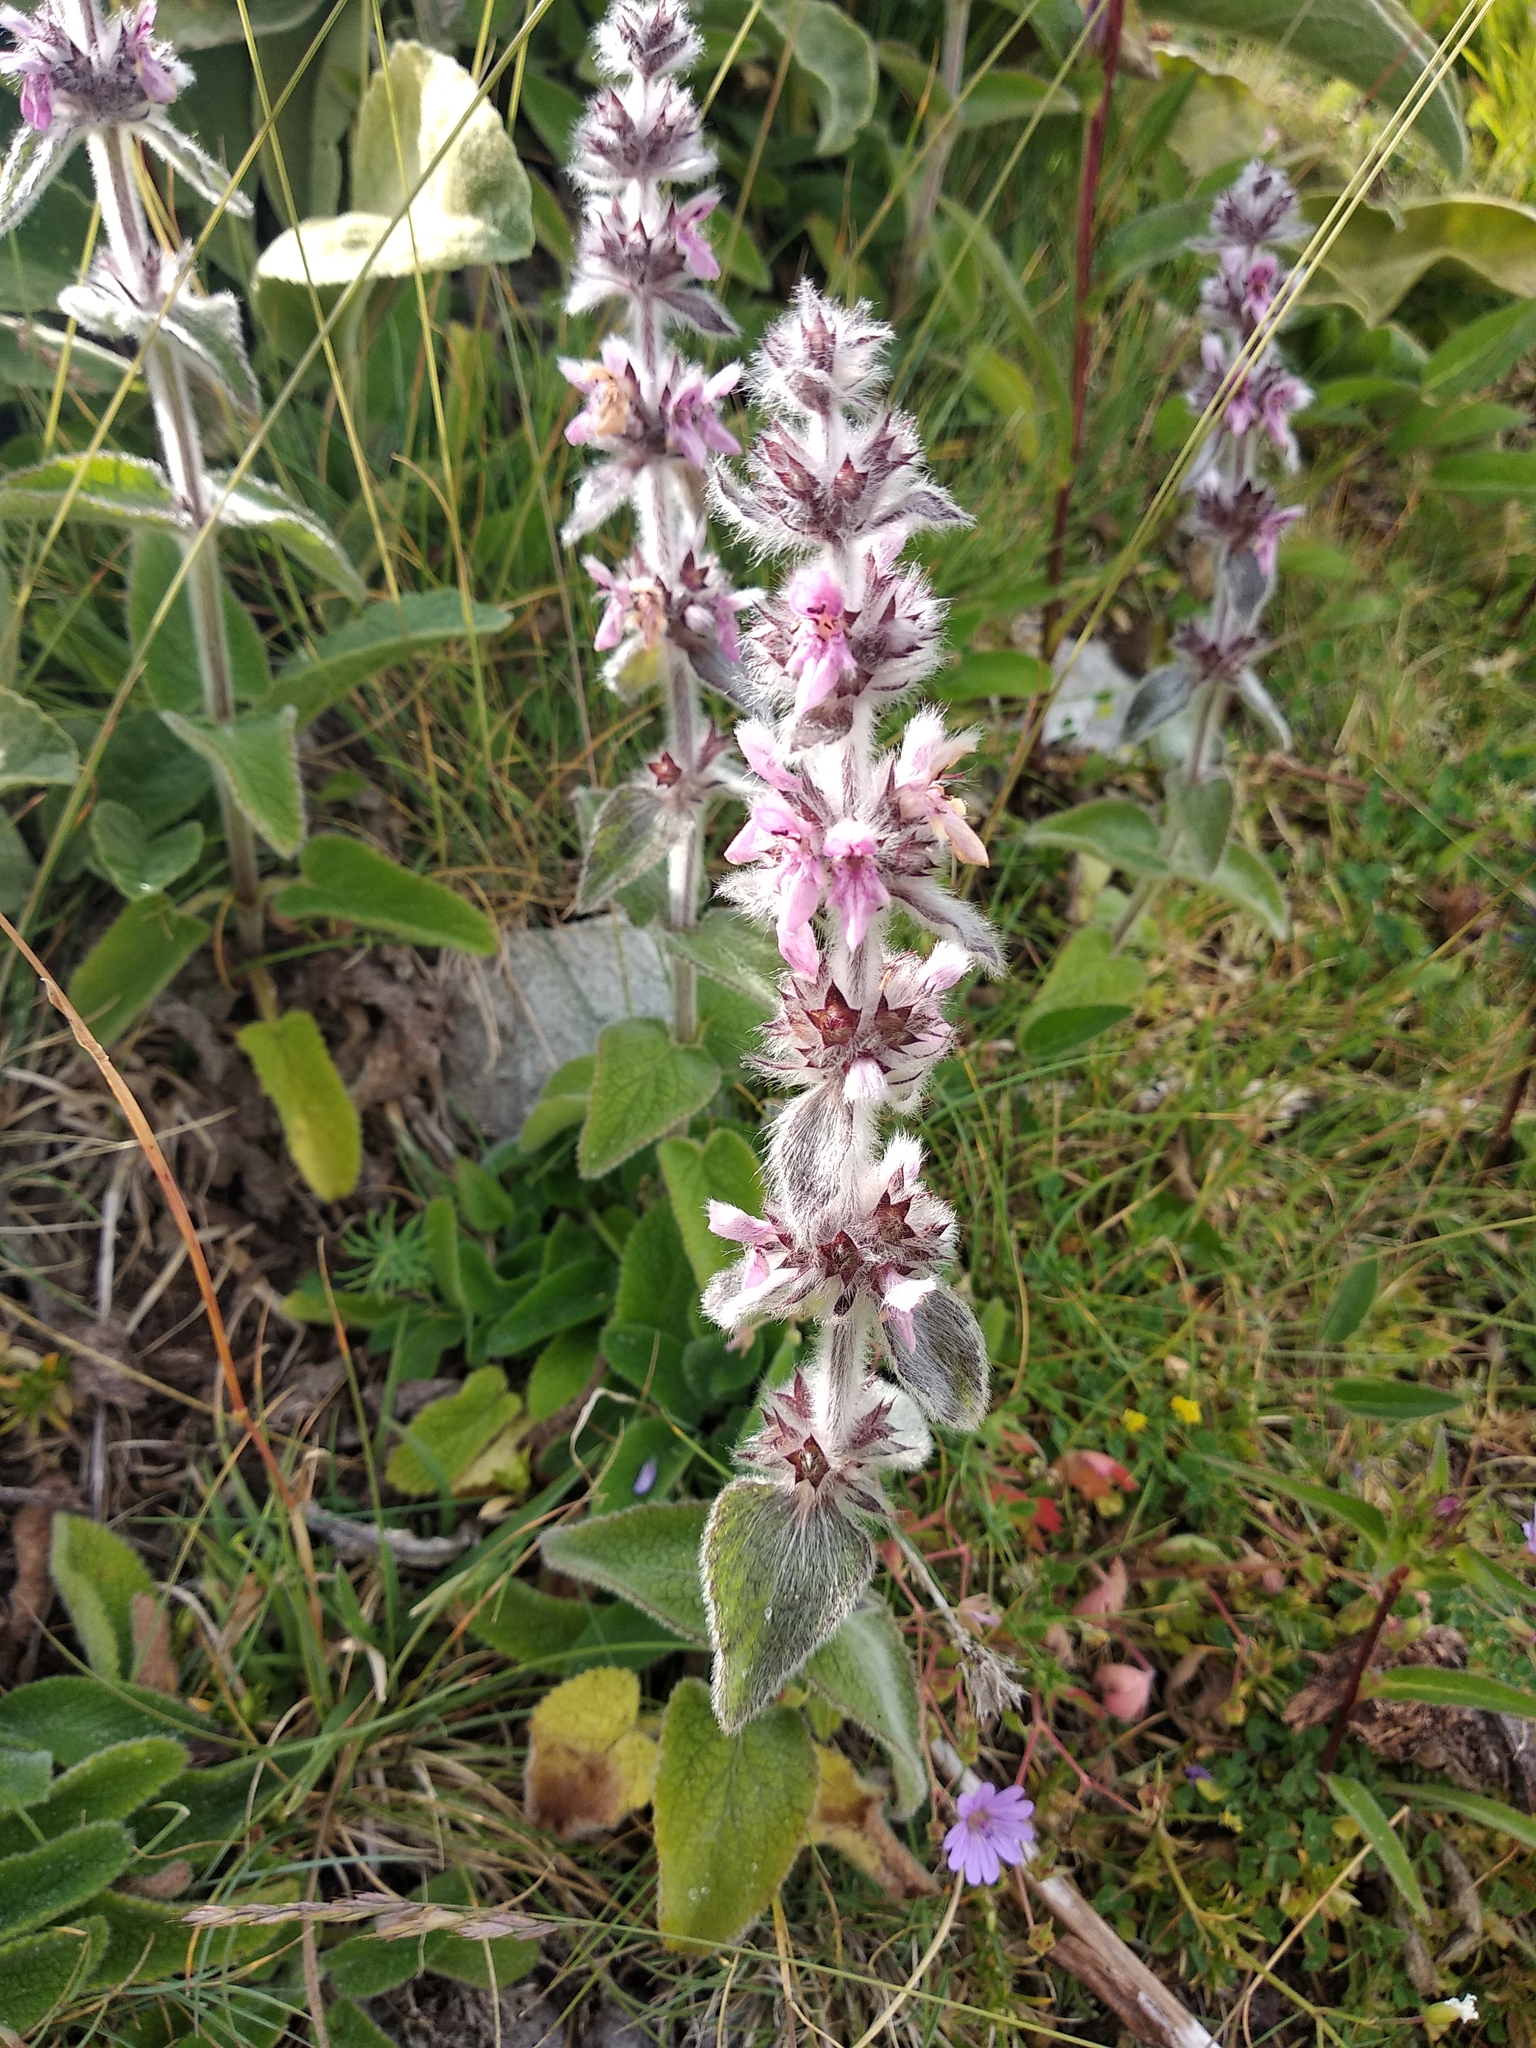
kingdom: Plantae
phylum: Tracheophyta
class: Magnoliopsida
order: Lamiales
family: Lamiaceae
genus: Stachys
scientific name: Stachys germanica
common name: Downy woundwort
